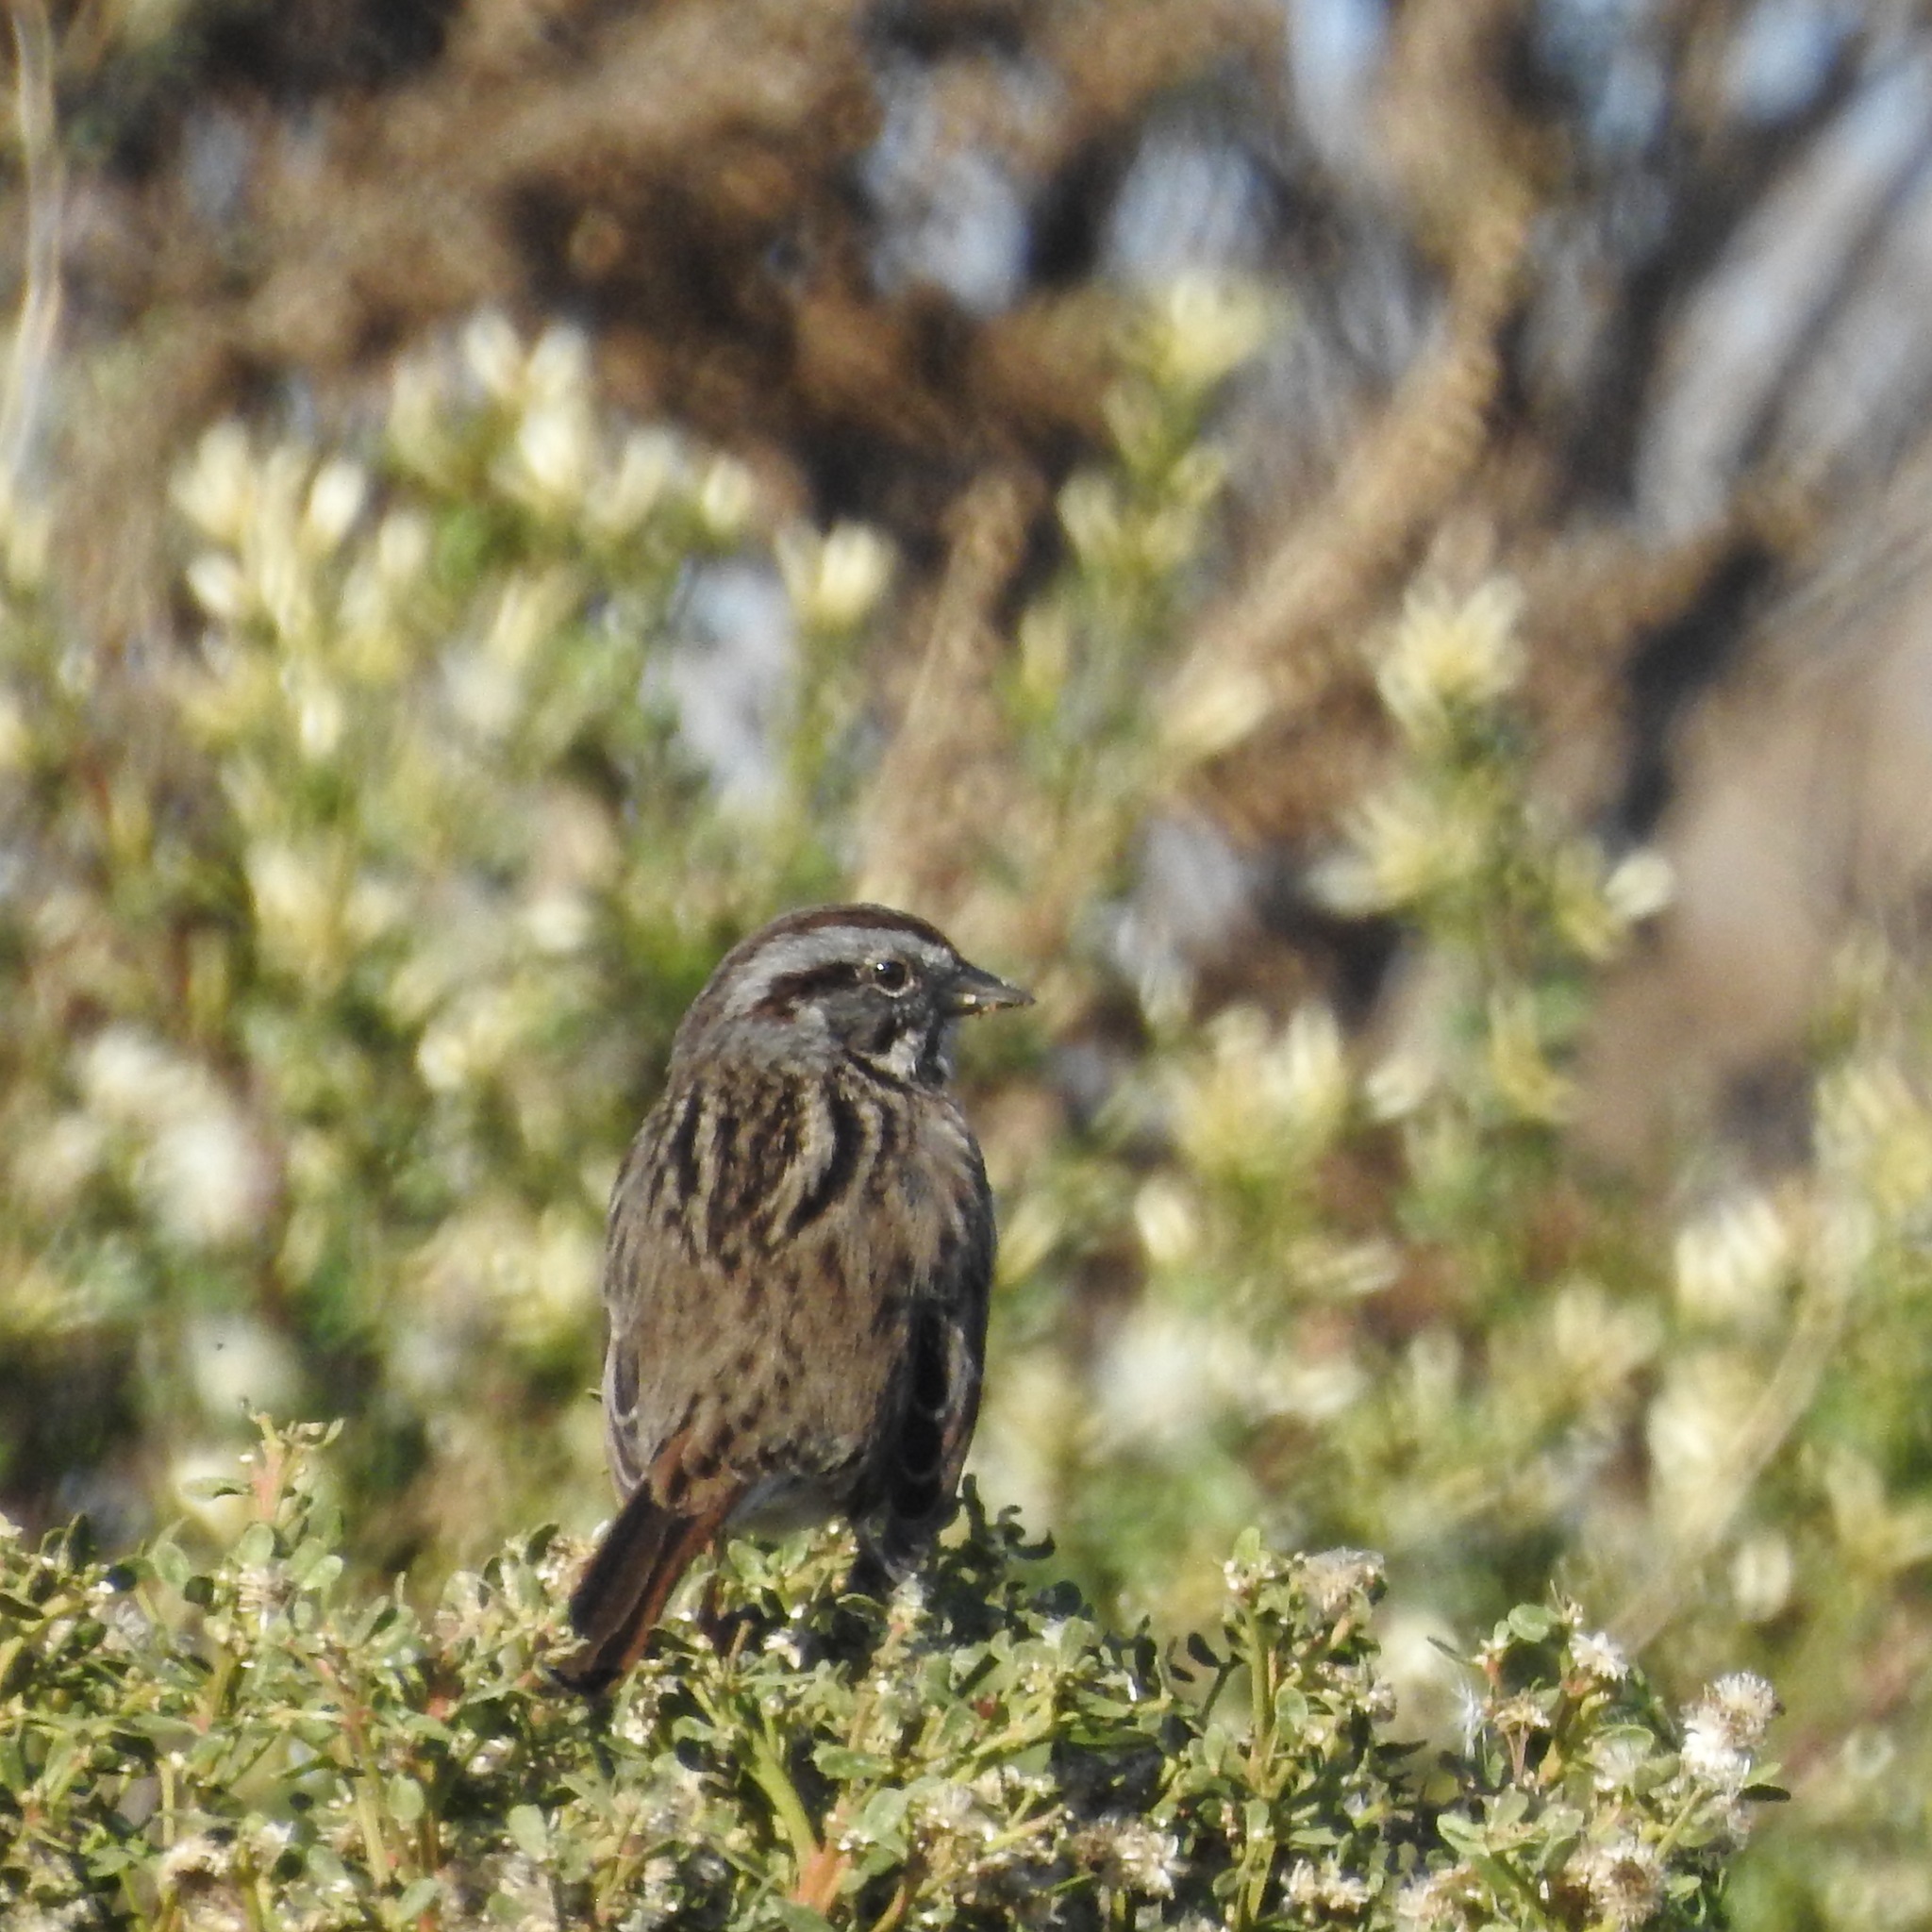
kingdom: Animalia
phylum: Chordata
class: Aves
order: Passeriformes
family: Passerellidae
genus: Melospiza
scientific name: Melospiza melodia
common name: Song sparrow
